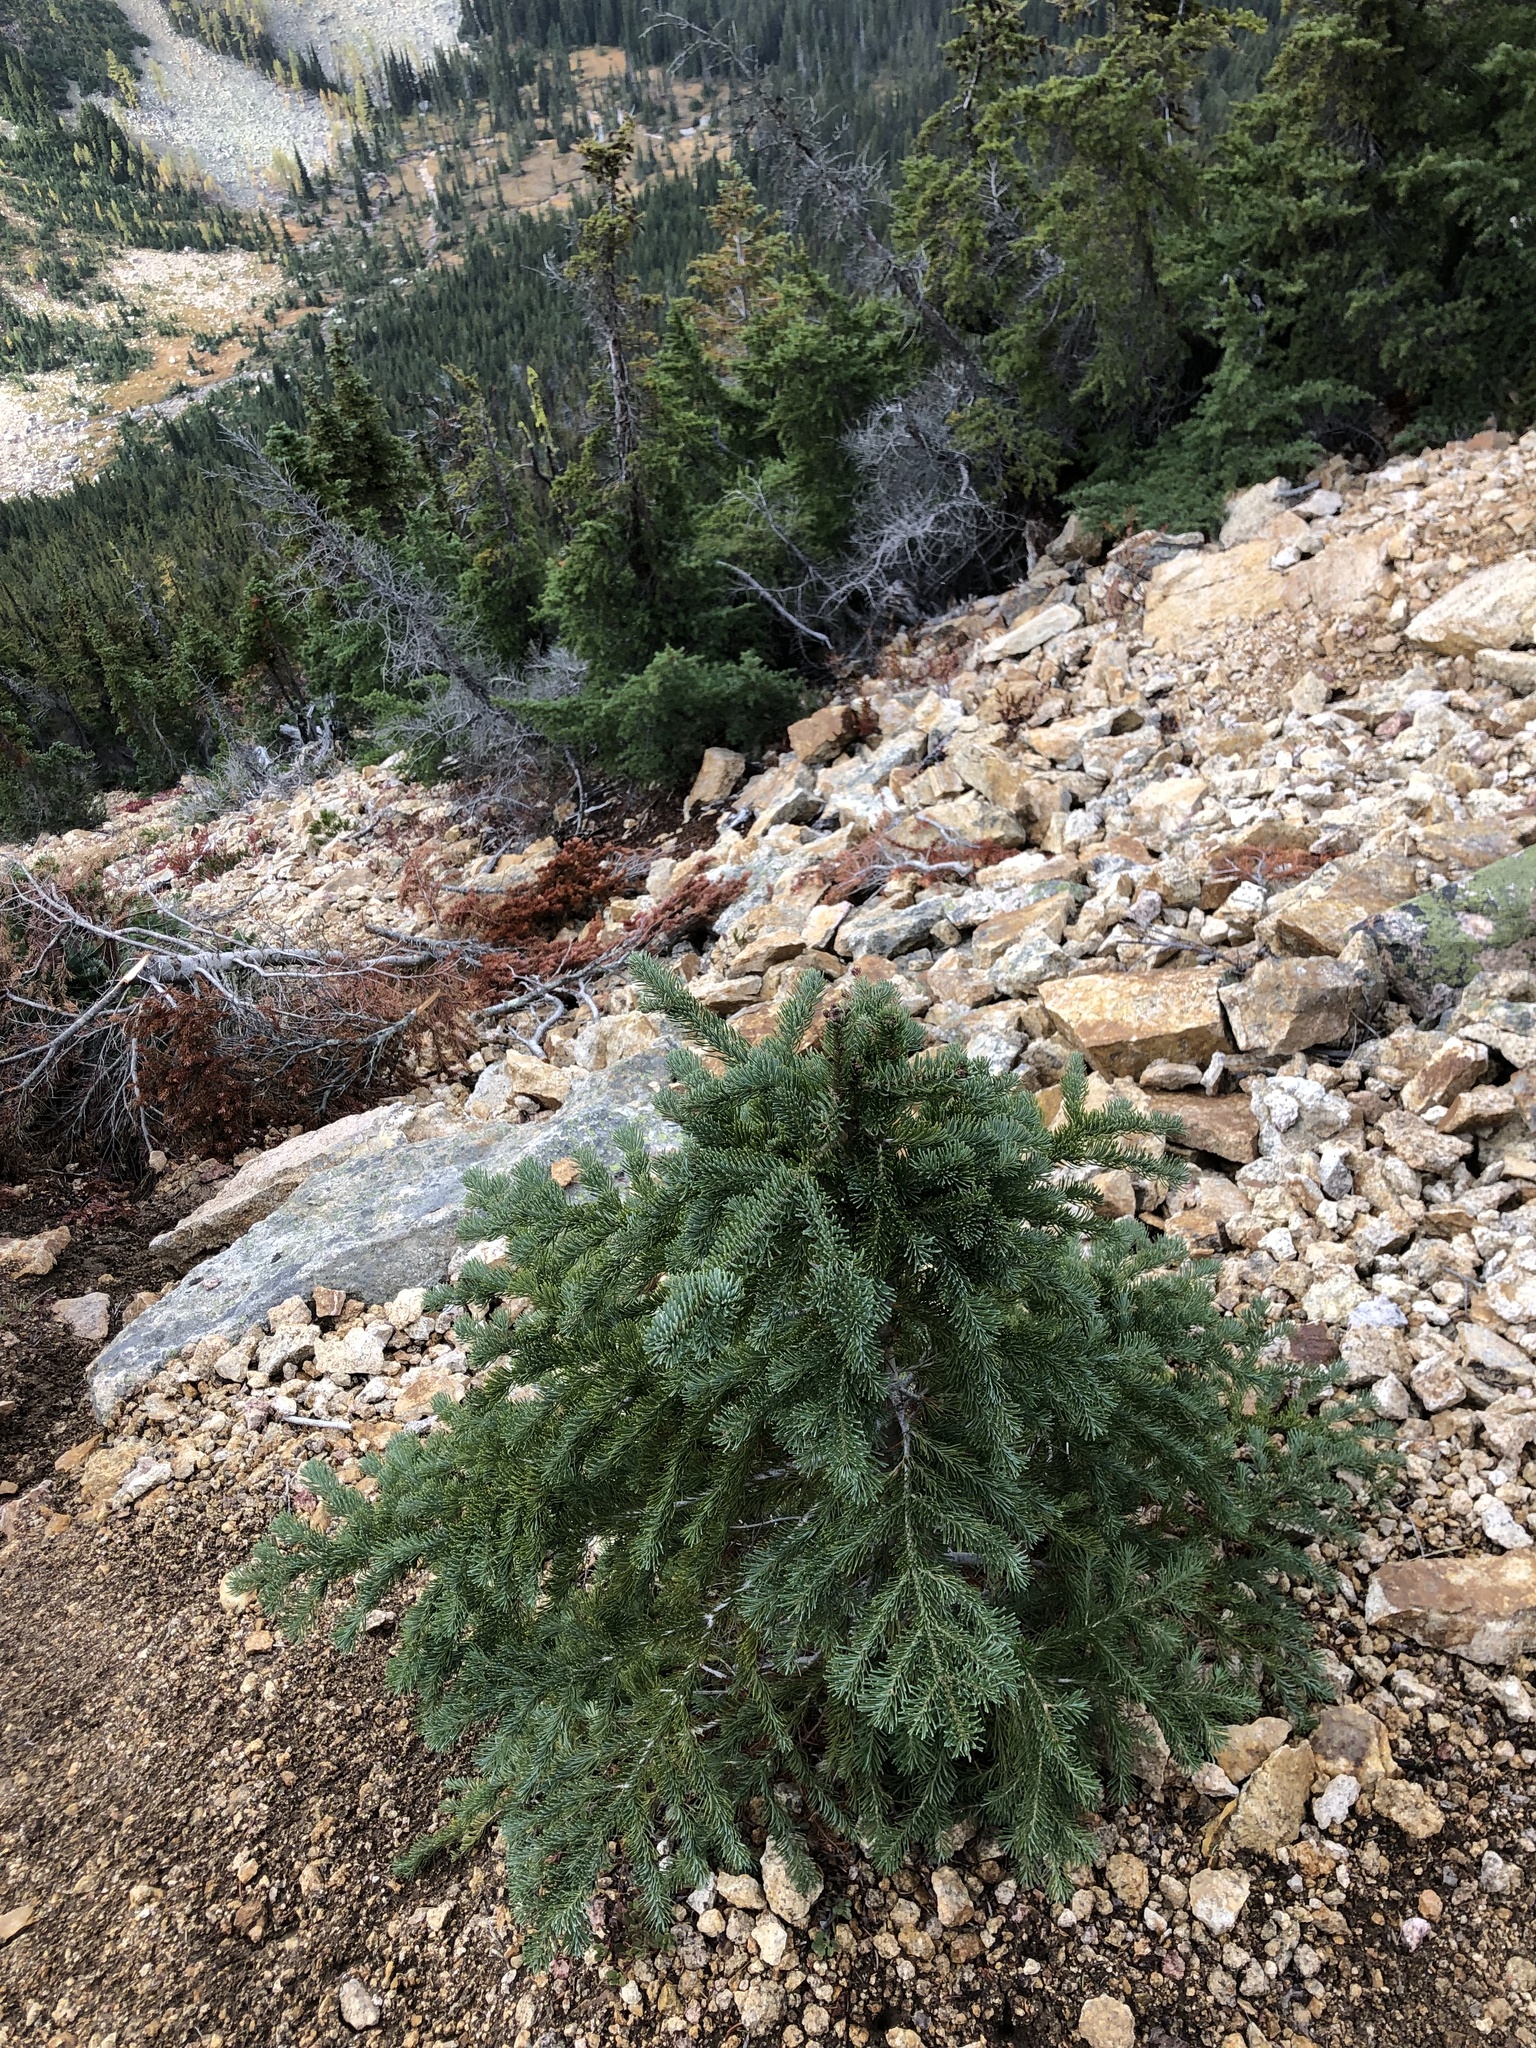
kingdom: Plantae
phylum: Tracheophyta
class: Pinopsida
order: Pinales
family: Pinaceae
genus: Abies
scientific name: Abies lasiocarpa
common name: Subalpine fir
